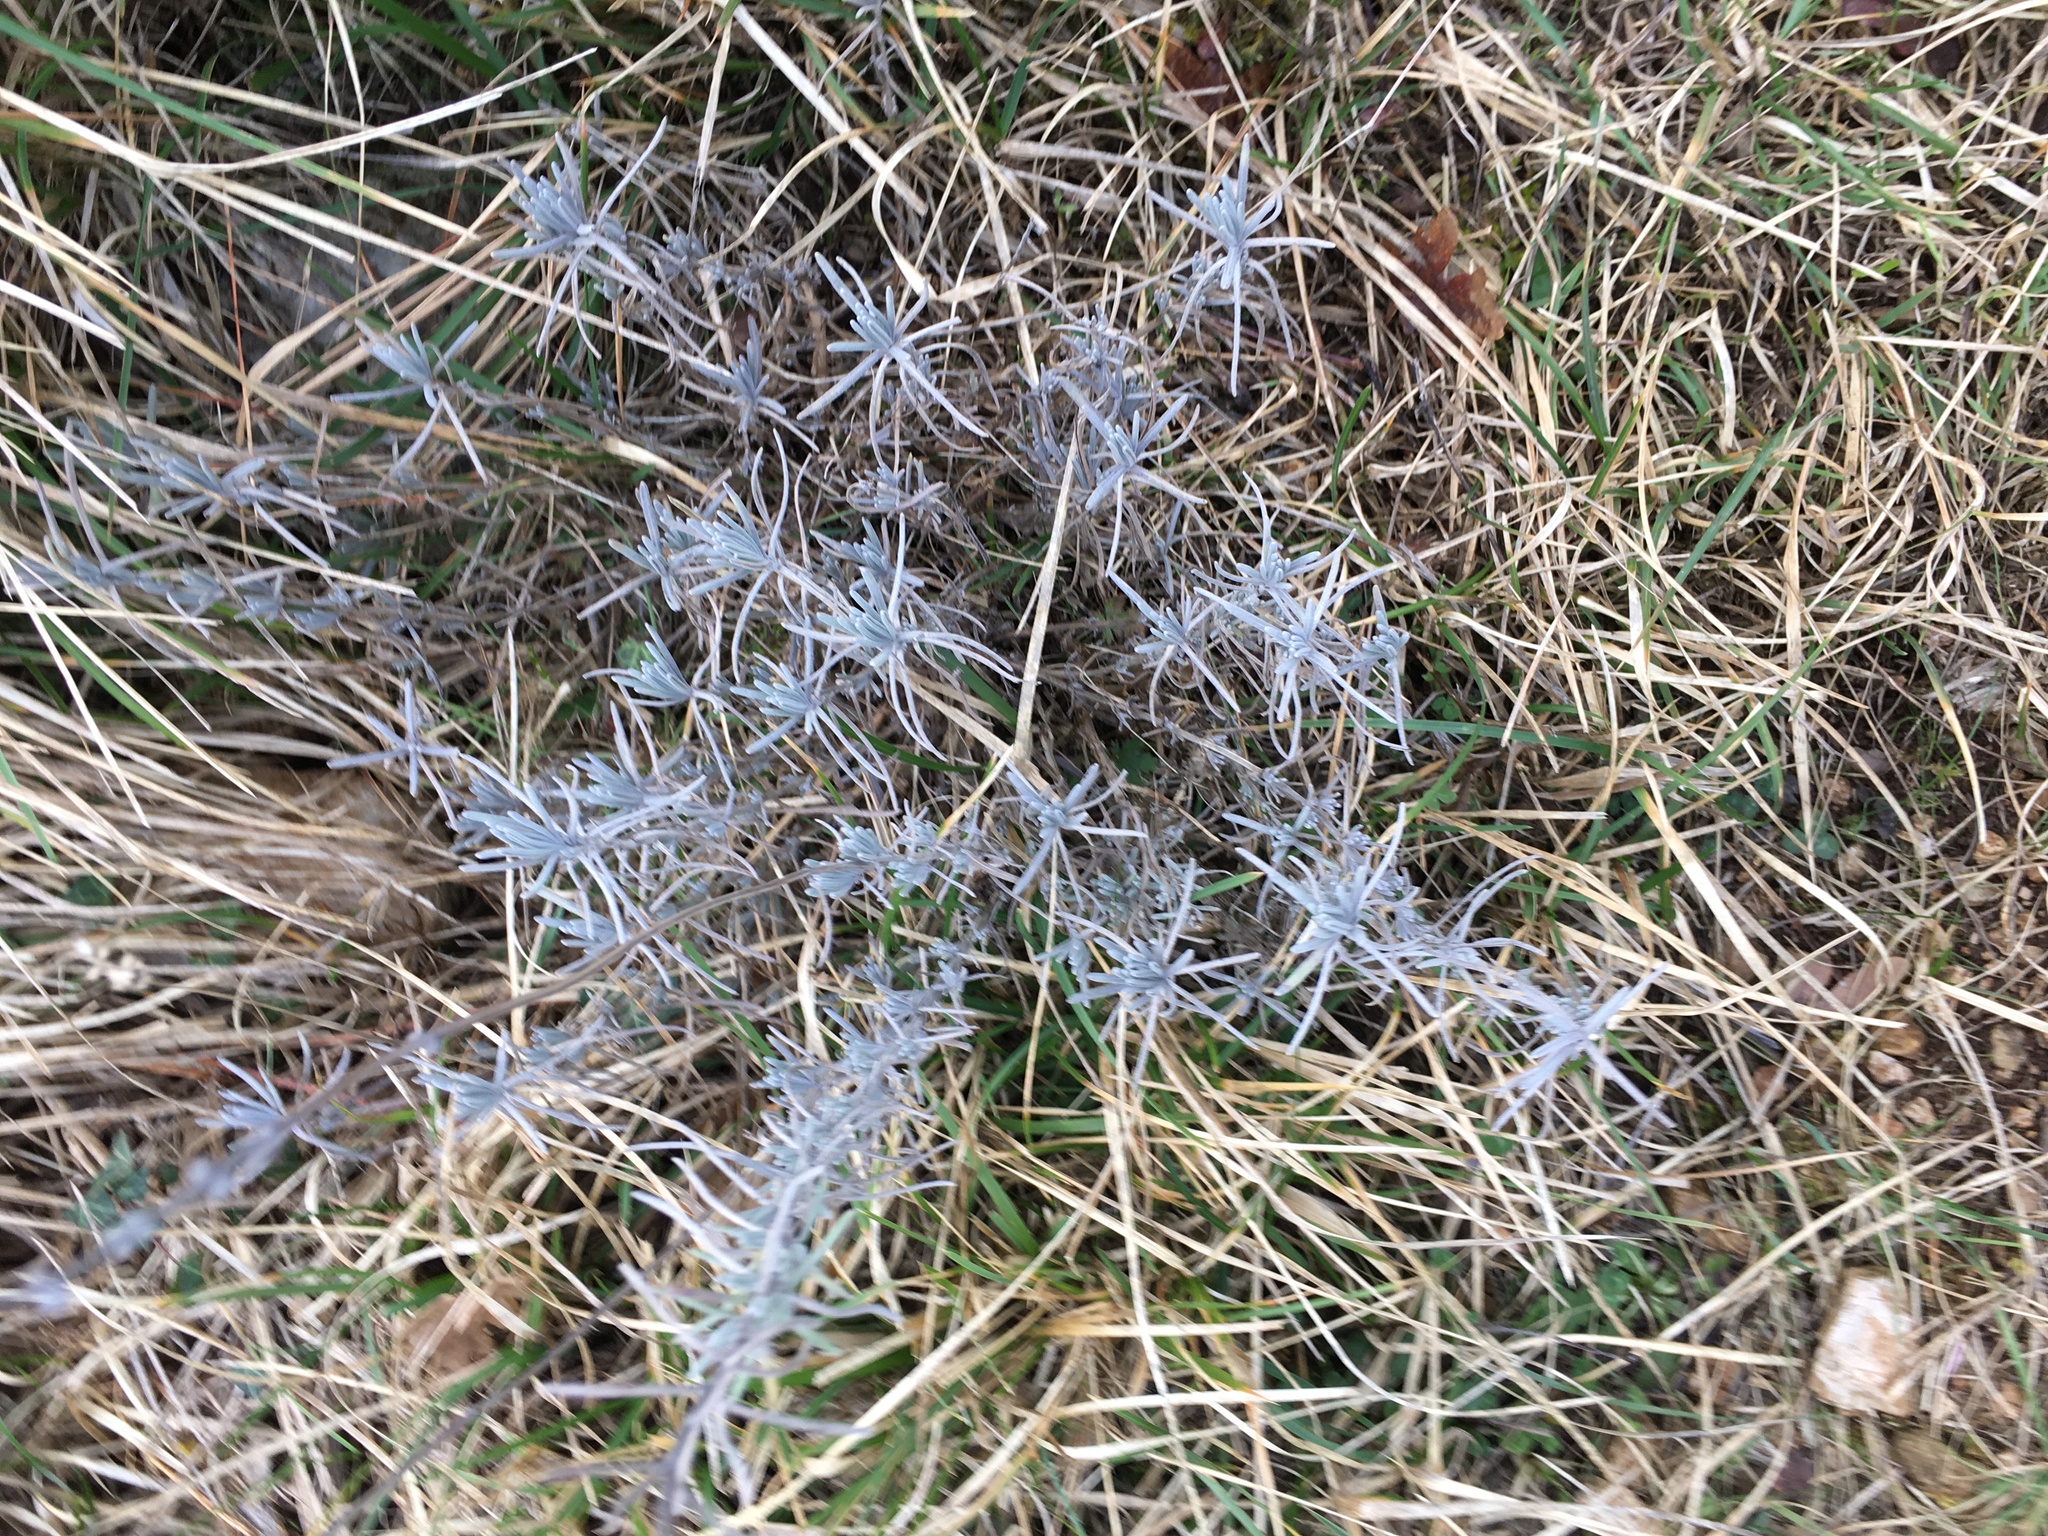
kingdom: Plantae
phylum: Tracheophyta
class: Magnoliopsida
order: Lamiales
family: Lamiaceae
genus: Lavandula
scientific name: Lavandula angustifolia
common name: Garden lavender
